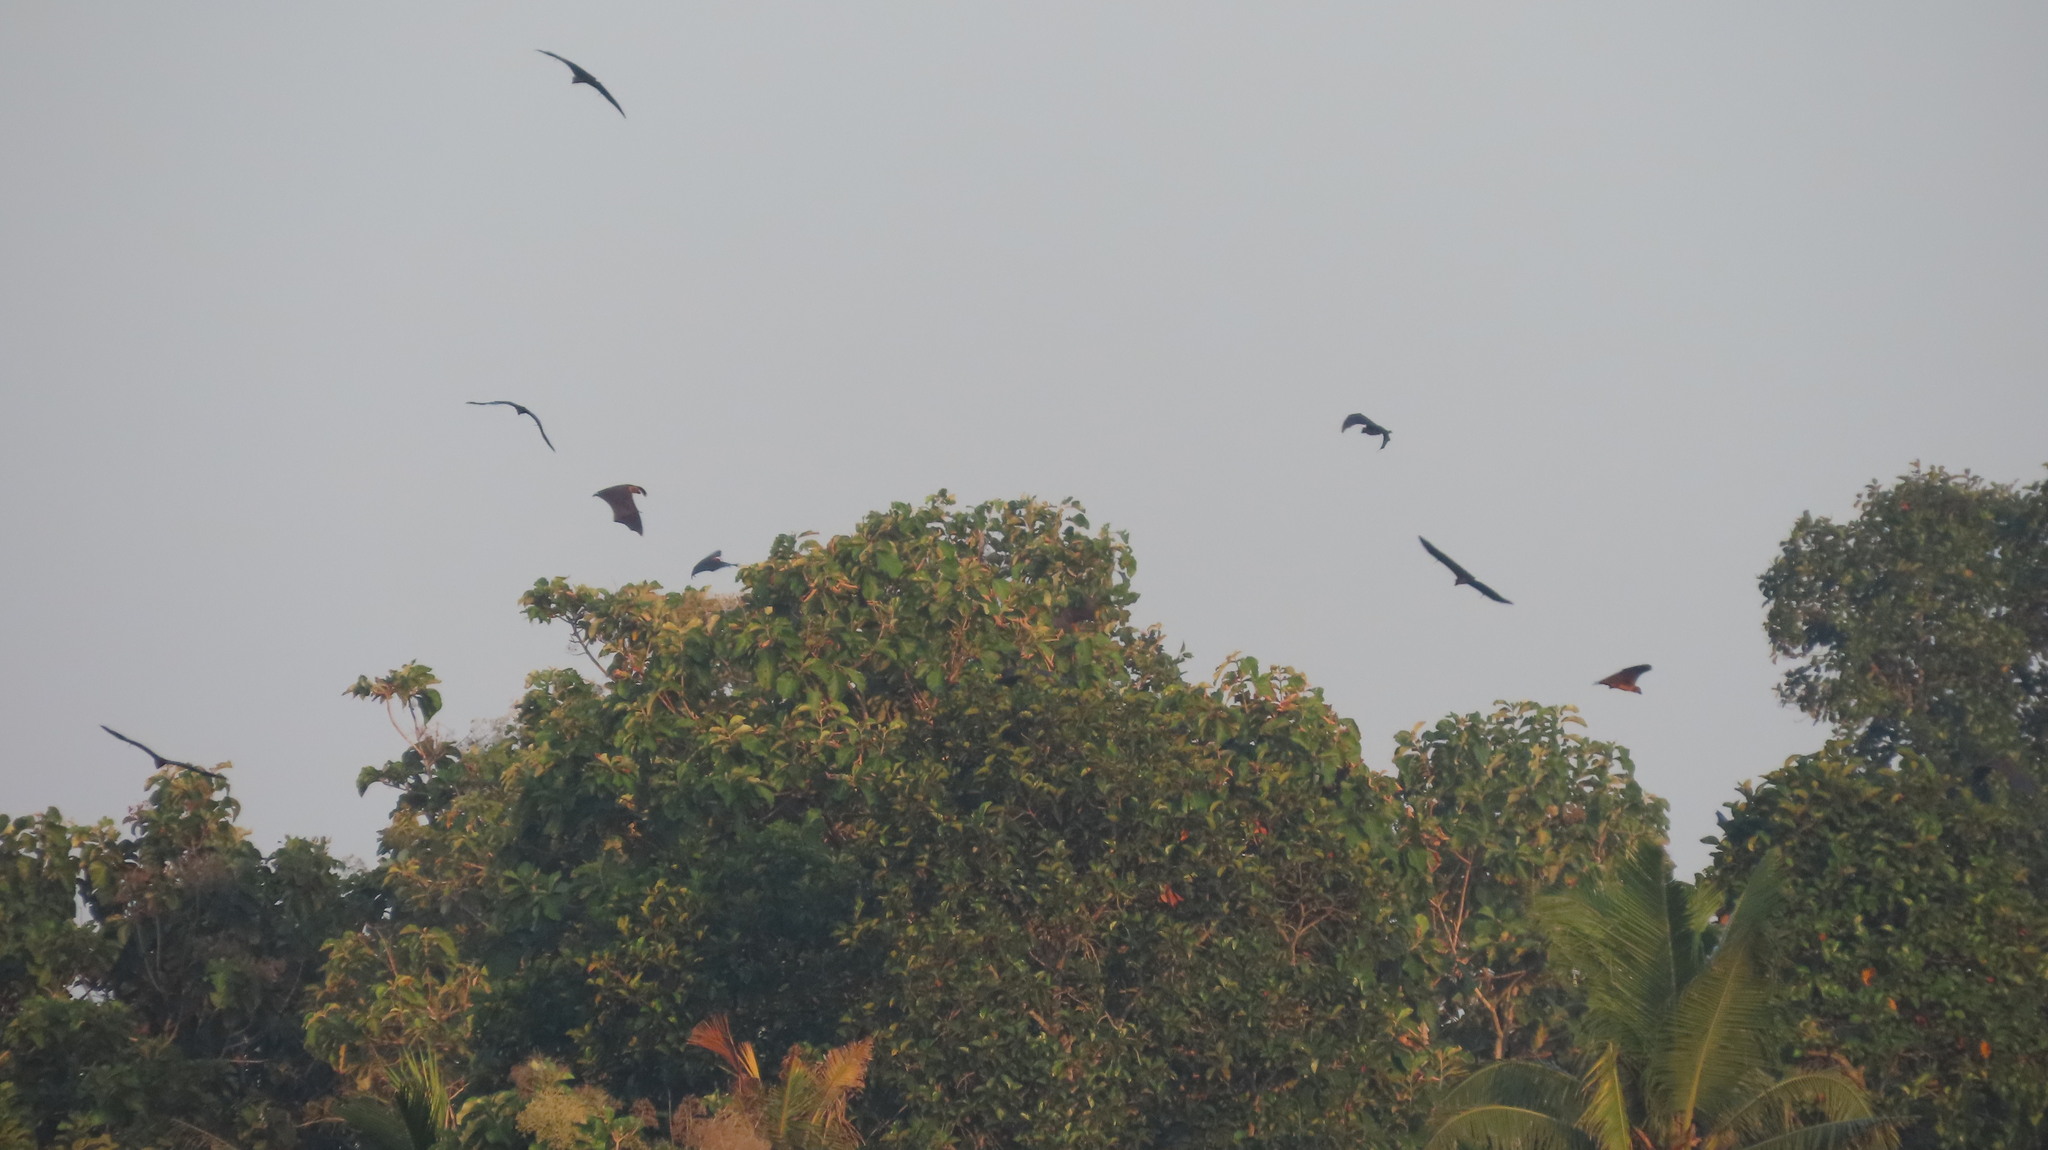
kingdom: Animalia
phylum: Chordata
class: Mammalia
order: Chiroptera
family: Pteropodidae
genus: Pteropus
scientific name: Pteropus vampyrus
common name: Large flying fox
